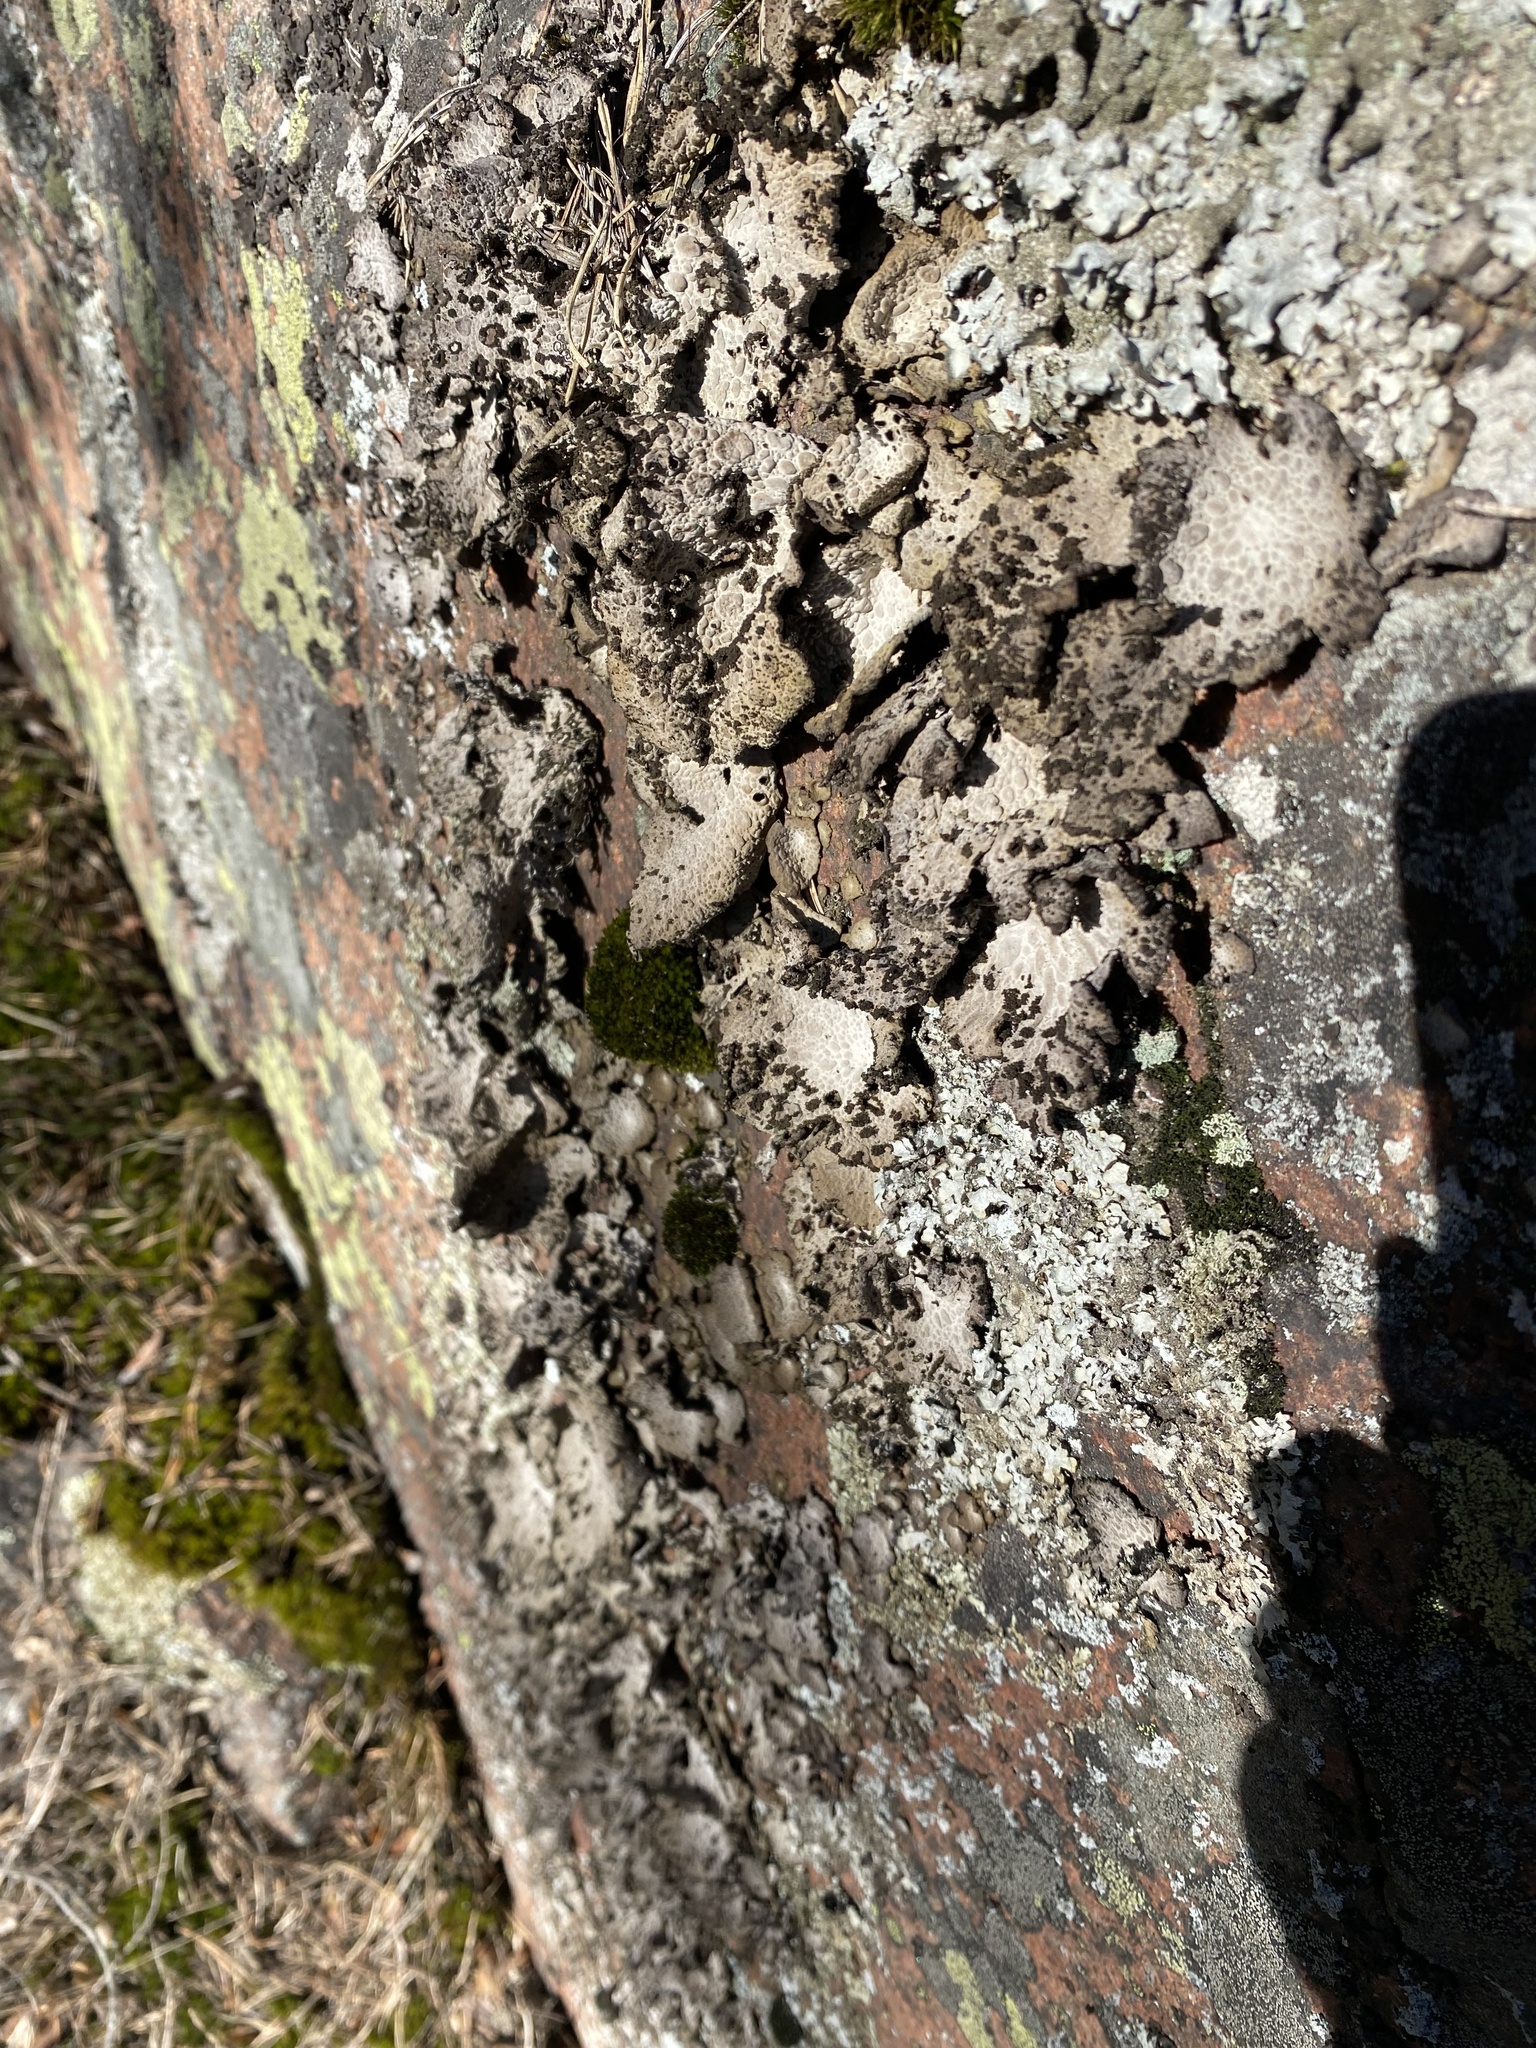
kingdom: Fungi
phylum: Ascomycota
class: Lecanoromycetes
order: Umbilicariales
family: Umbilicariaceae
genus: Lasallia
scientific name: Lasallia pustulata
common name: Blistered toadskin lichen
